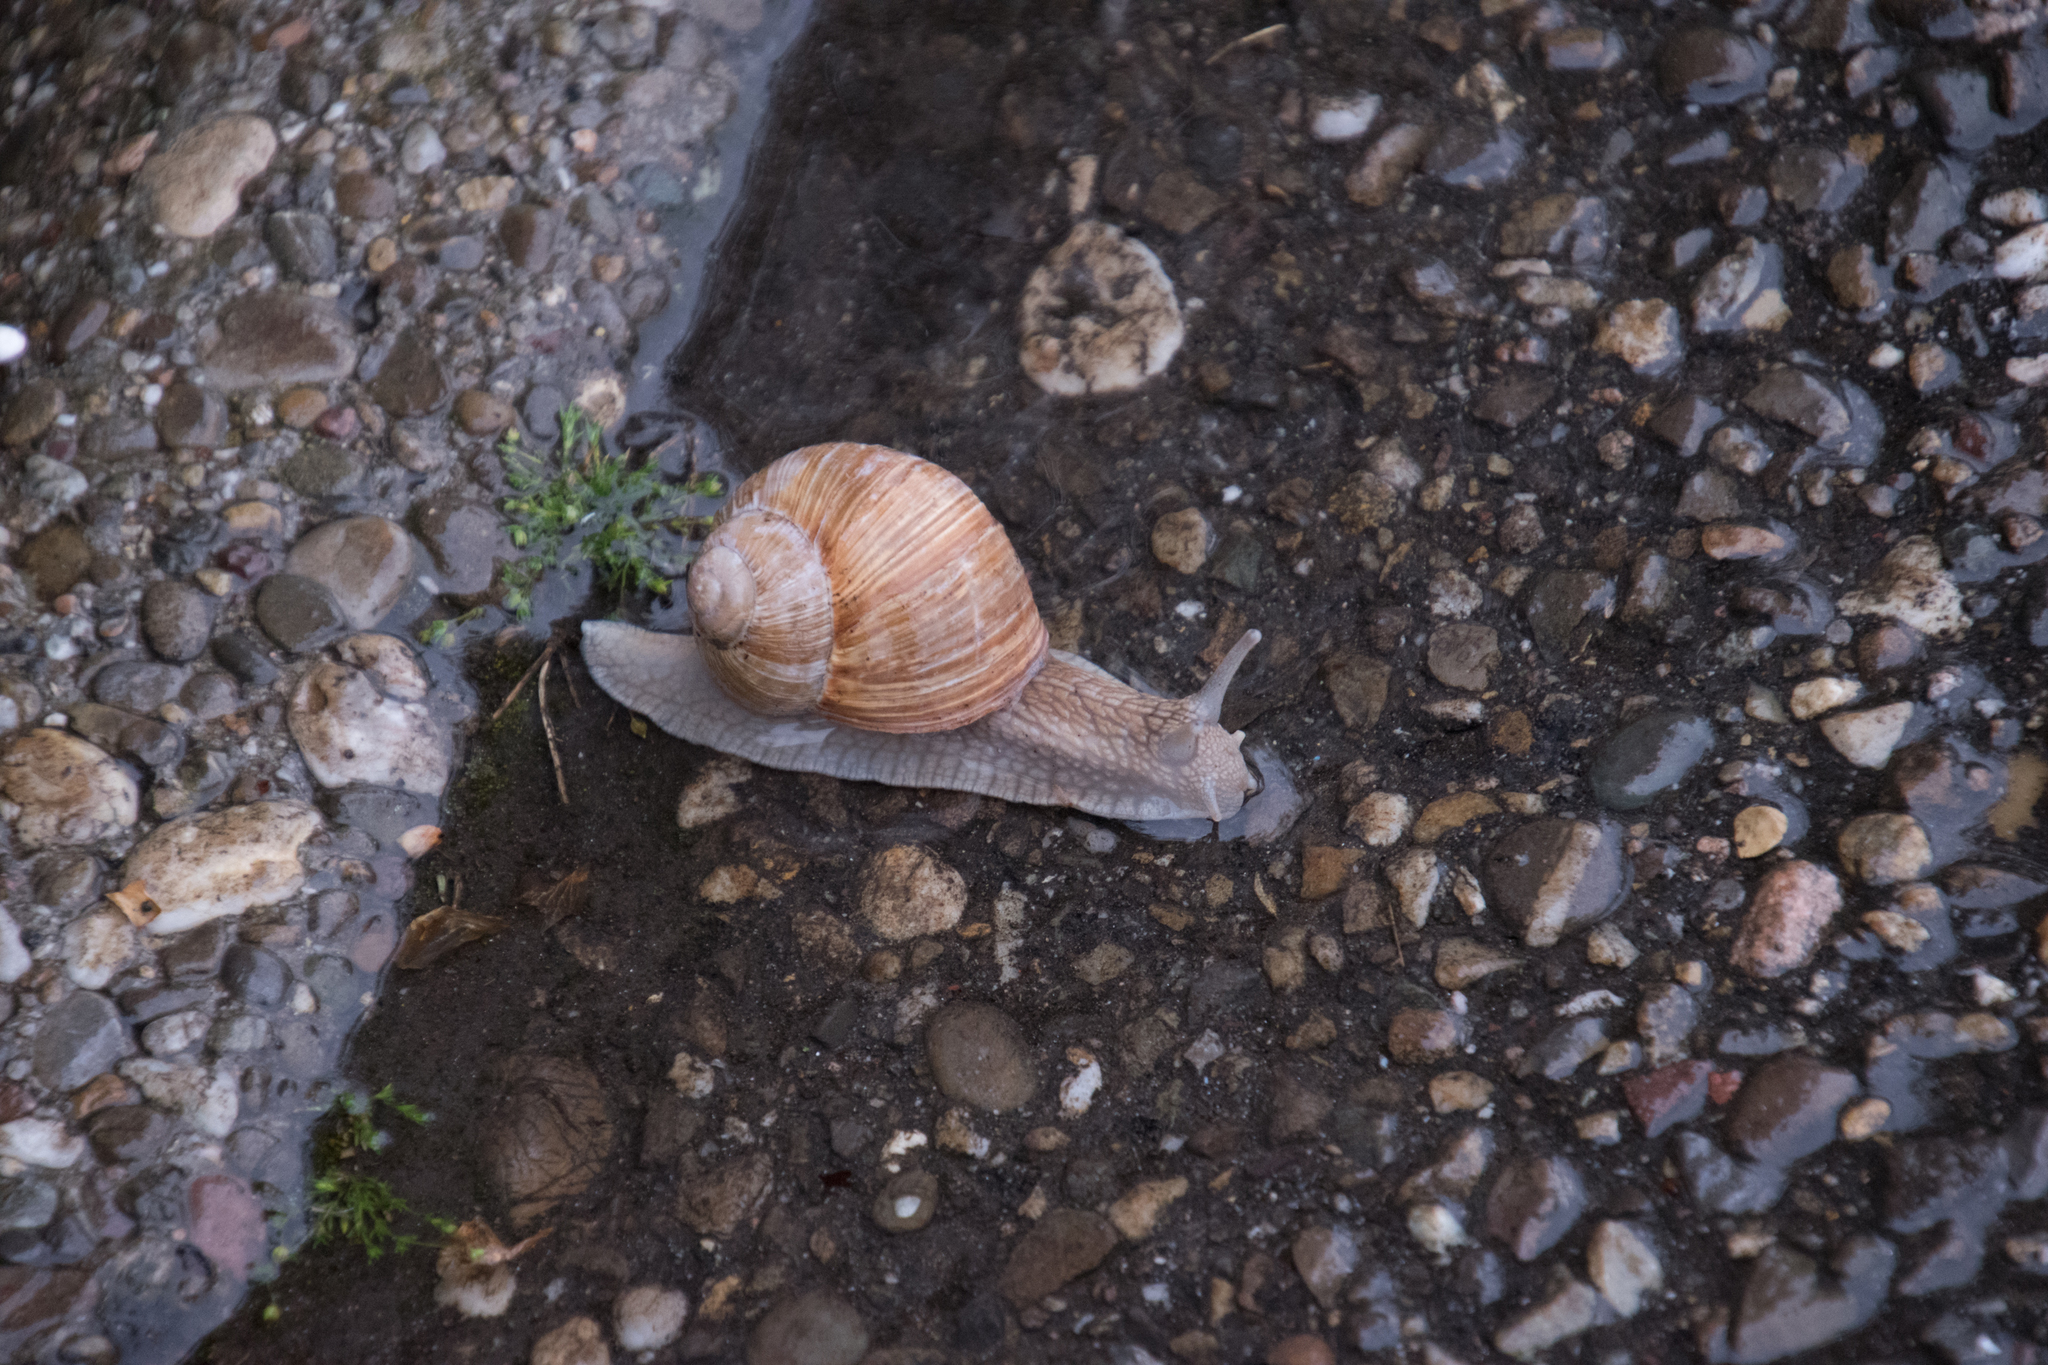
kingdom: Animalia
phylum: Mollusca
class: Gastropoda
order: Stylommatophora
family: Helicidae
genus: Helix
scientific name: Helix pomatia
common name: Roman snail
